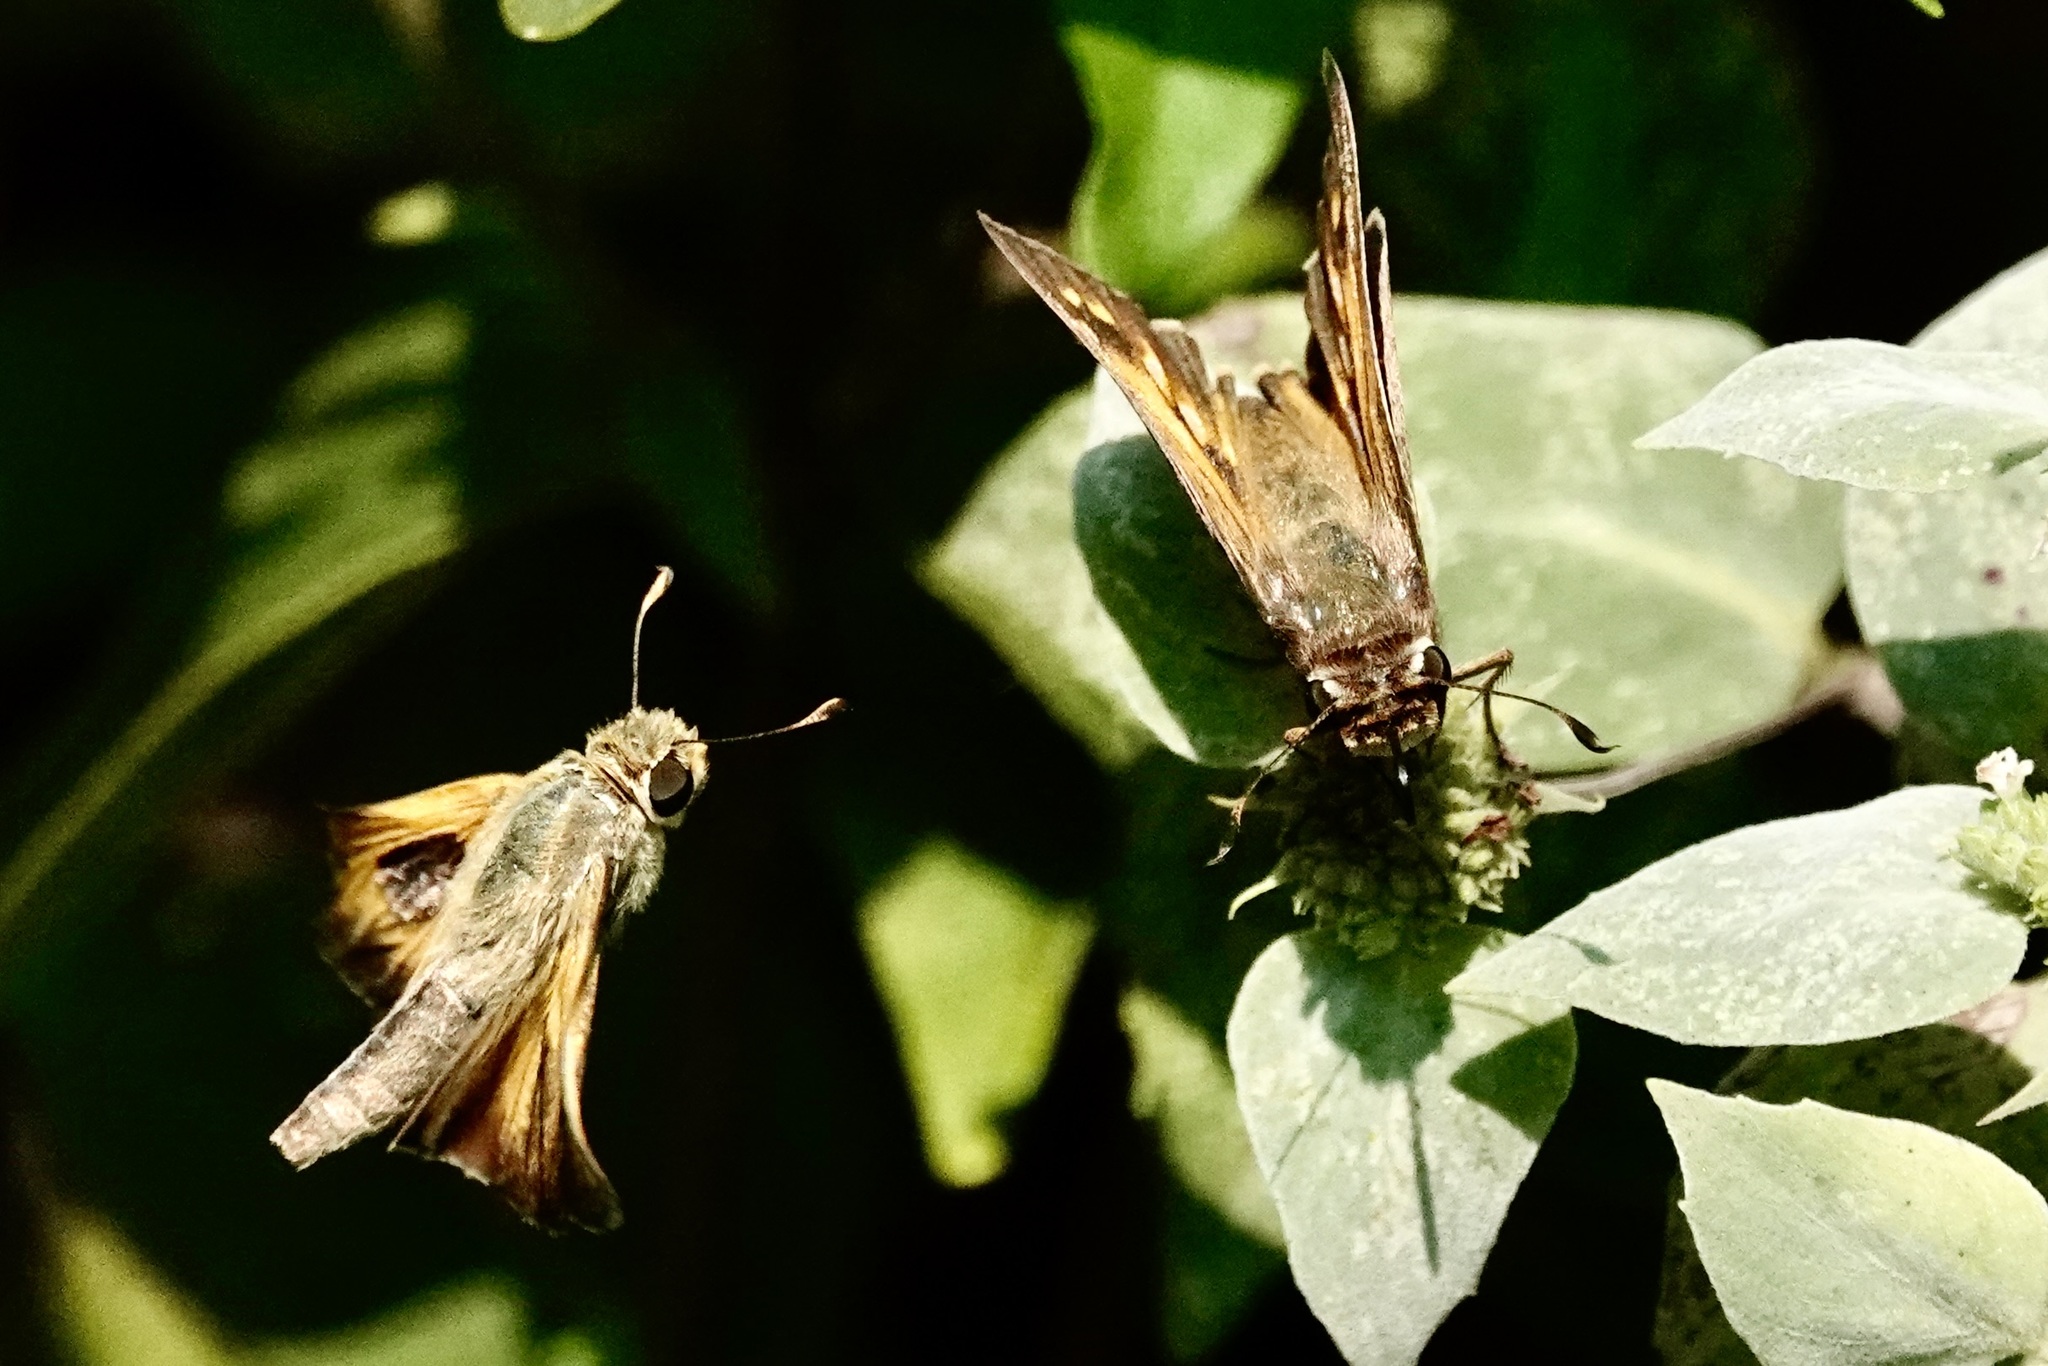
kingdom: Animalia
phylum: Arthropoda
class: Insecta
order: Lepidoptera
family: Hesperiidae
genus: Atalopedes
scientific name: Atalopedes
